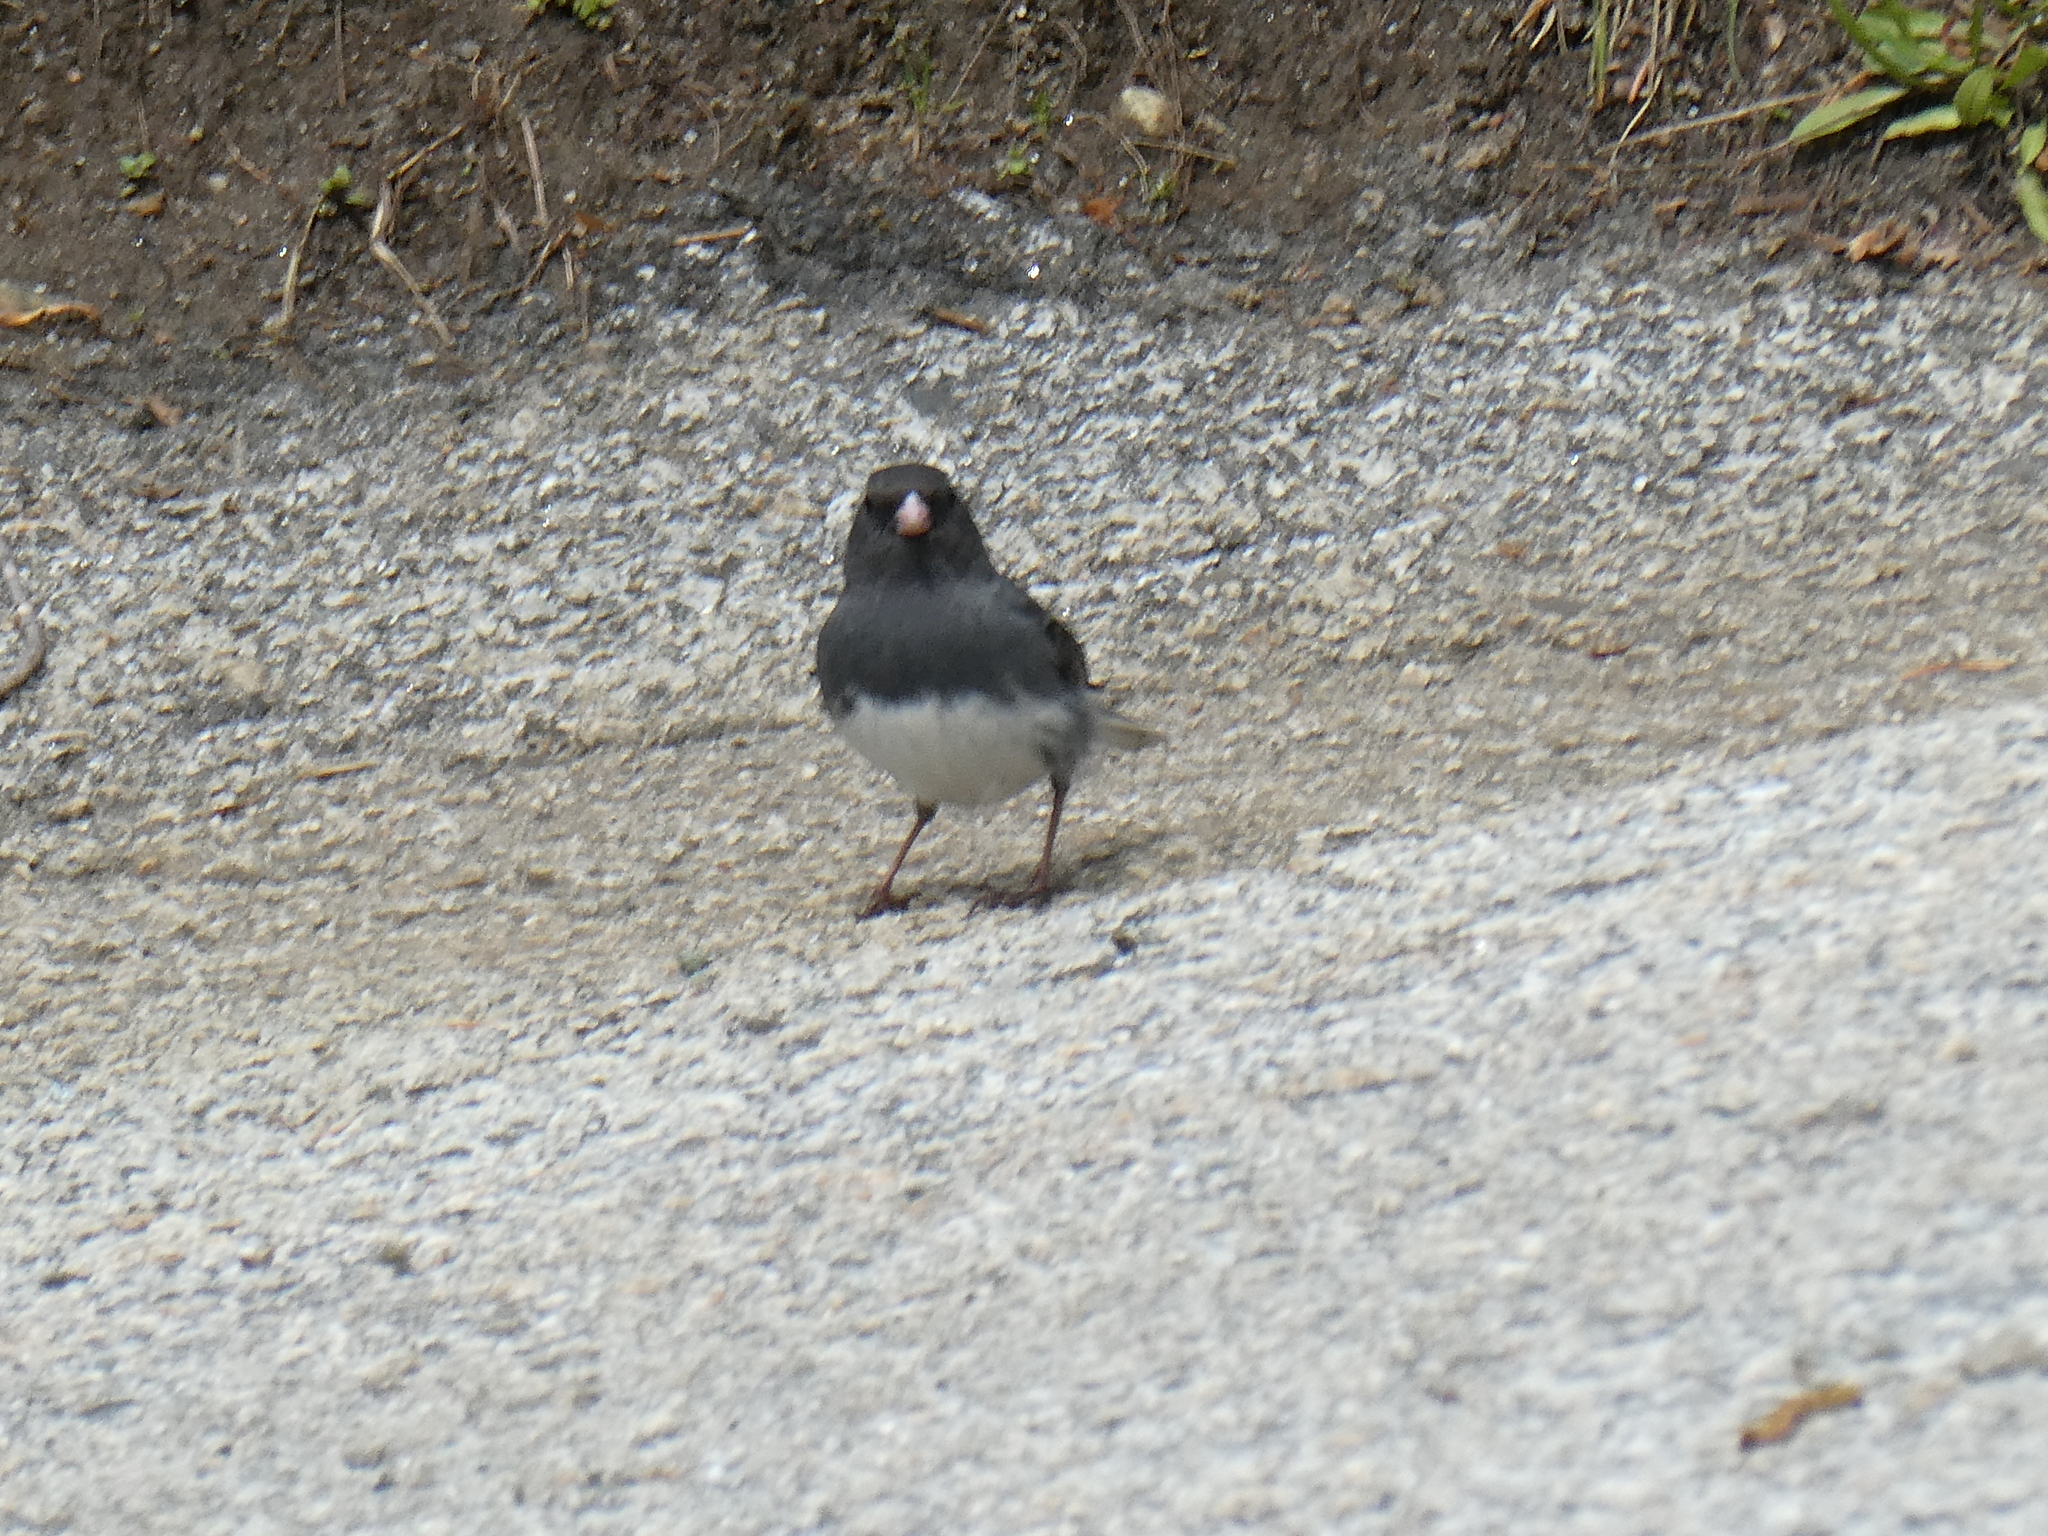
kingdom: Animalia
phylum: Chordata
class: Aves
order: Passeriformes
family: Passerellidae
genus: Junco
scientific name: Junco hyemalis
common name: Dark-eyed junco
